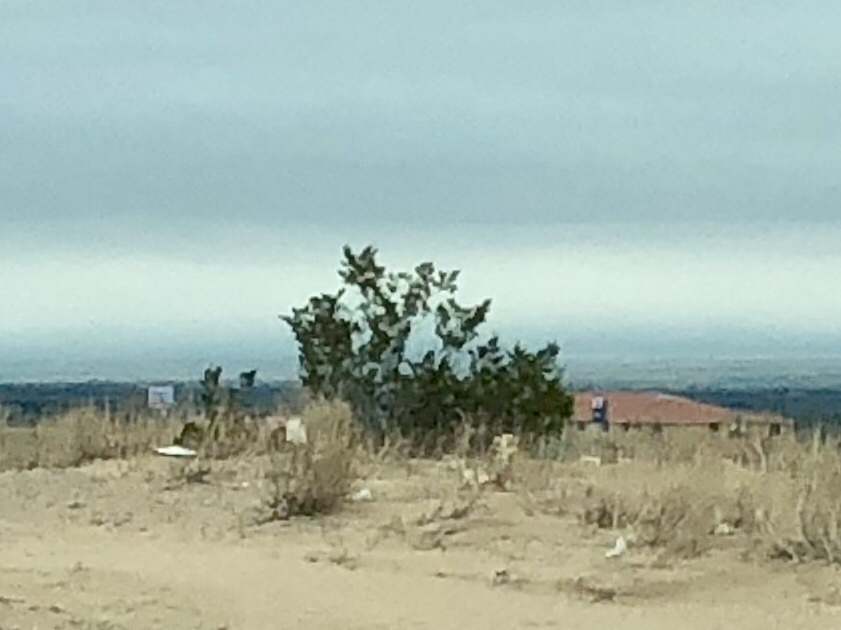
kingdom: Plantae
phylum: Tracheophyta
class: Magnoliopsida
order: Zygophyllales
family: Zygophyllaceae
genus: Larrea
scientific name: Larrea tridentata
